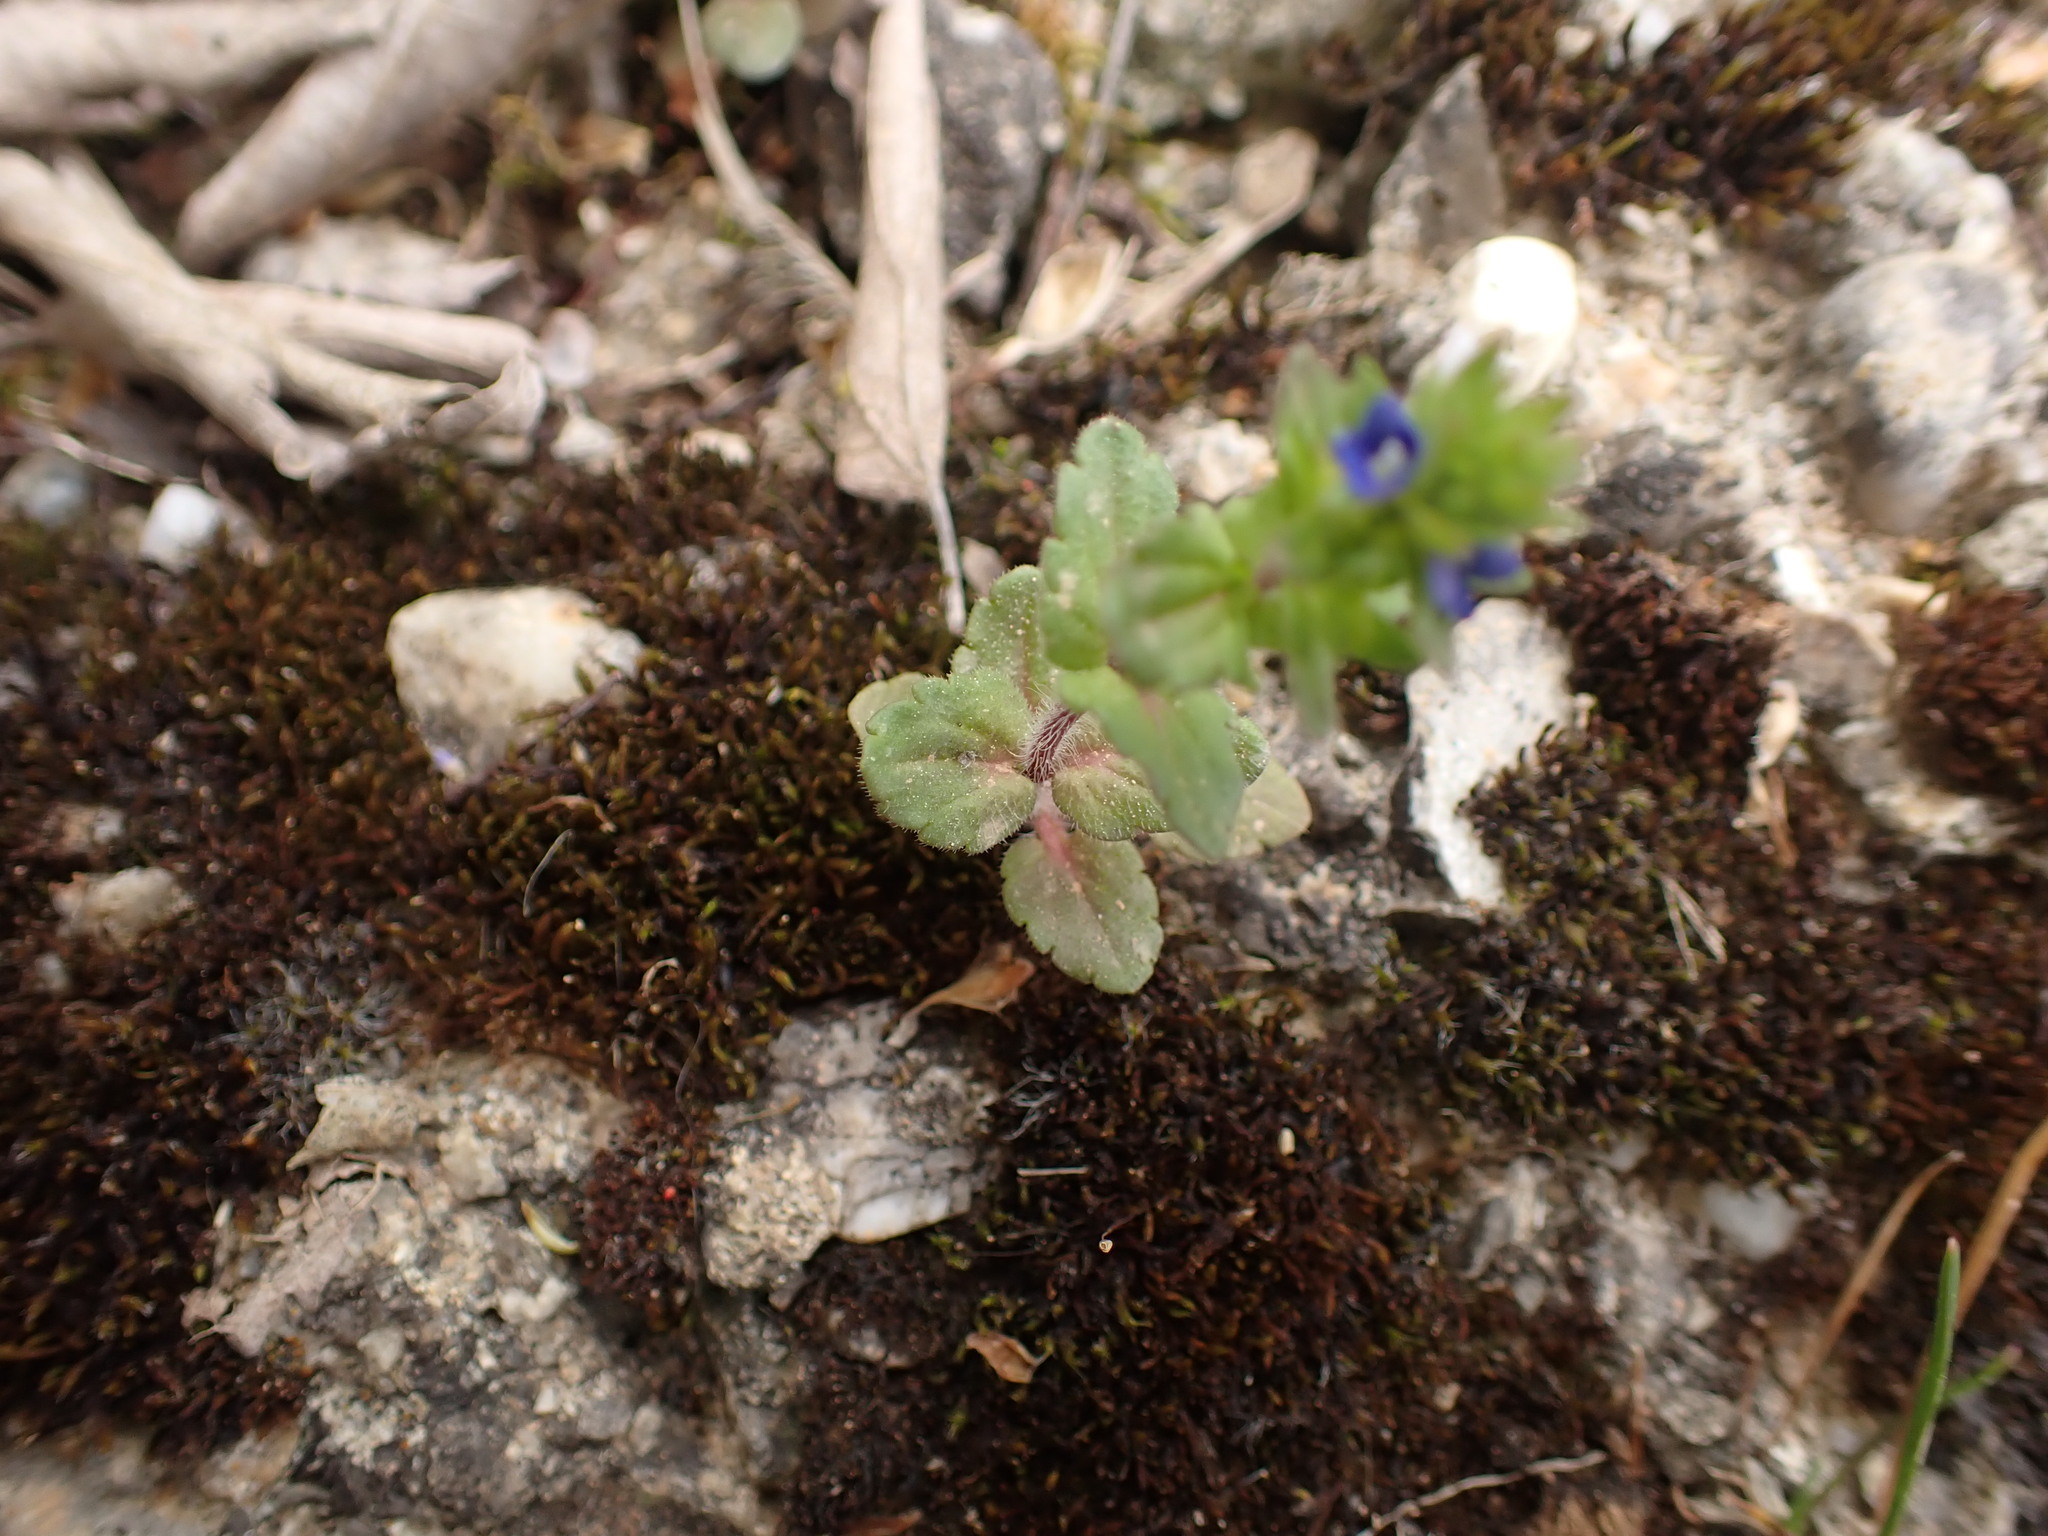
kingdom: Plantae
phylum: Tracheophyta
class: Magnoliopsida
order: Lamiales
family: Plantaginaceae
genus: Veronica
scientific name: Veronica arvensis
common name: Corn speedwell
